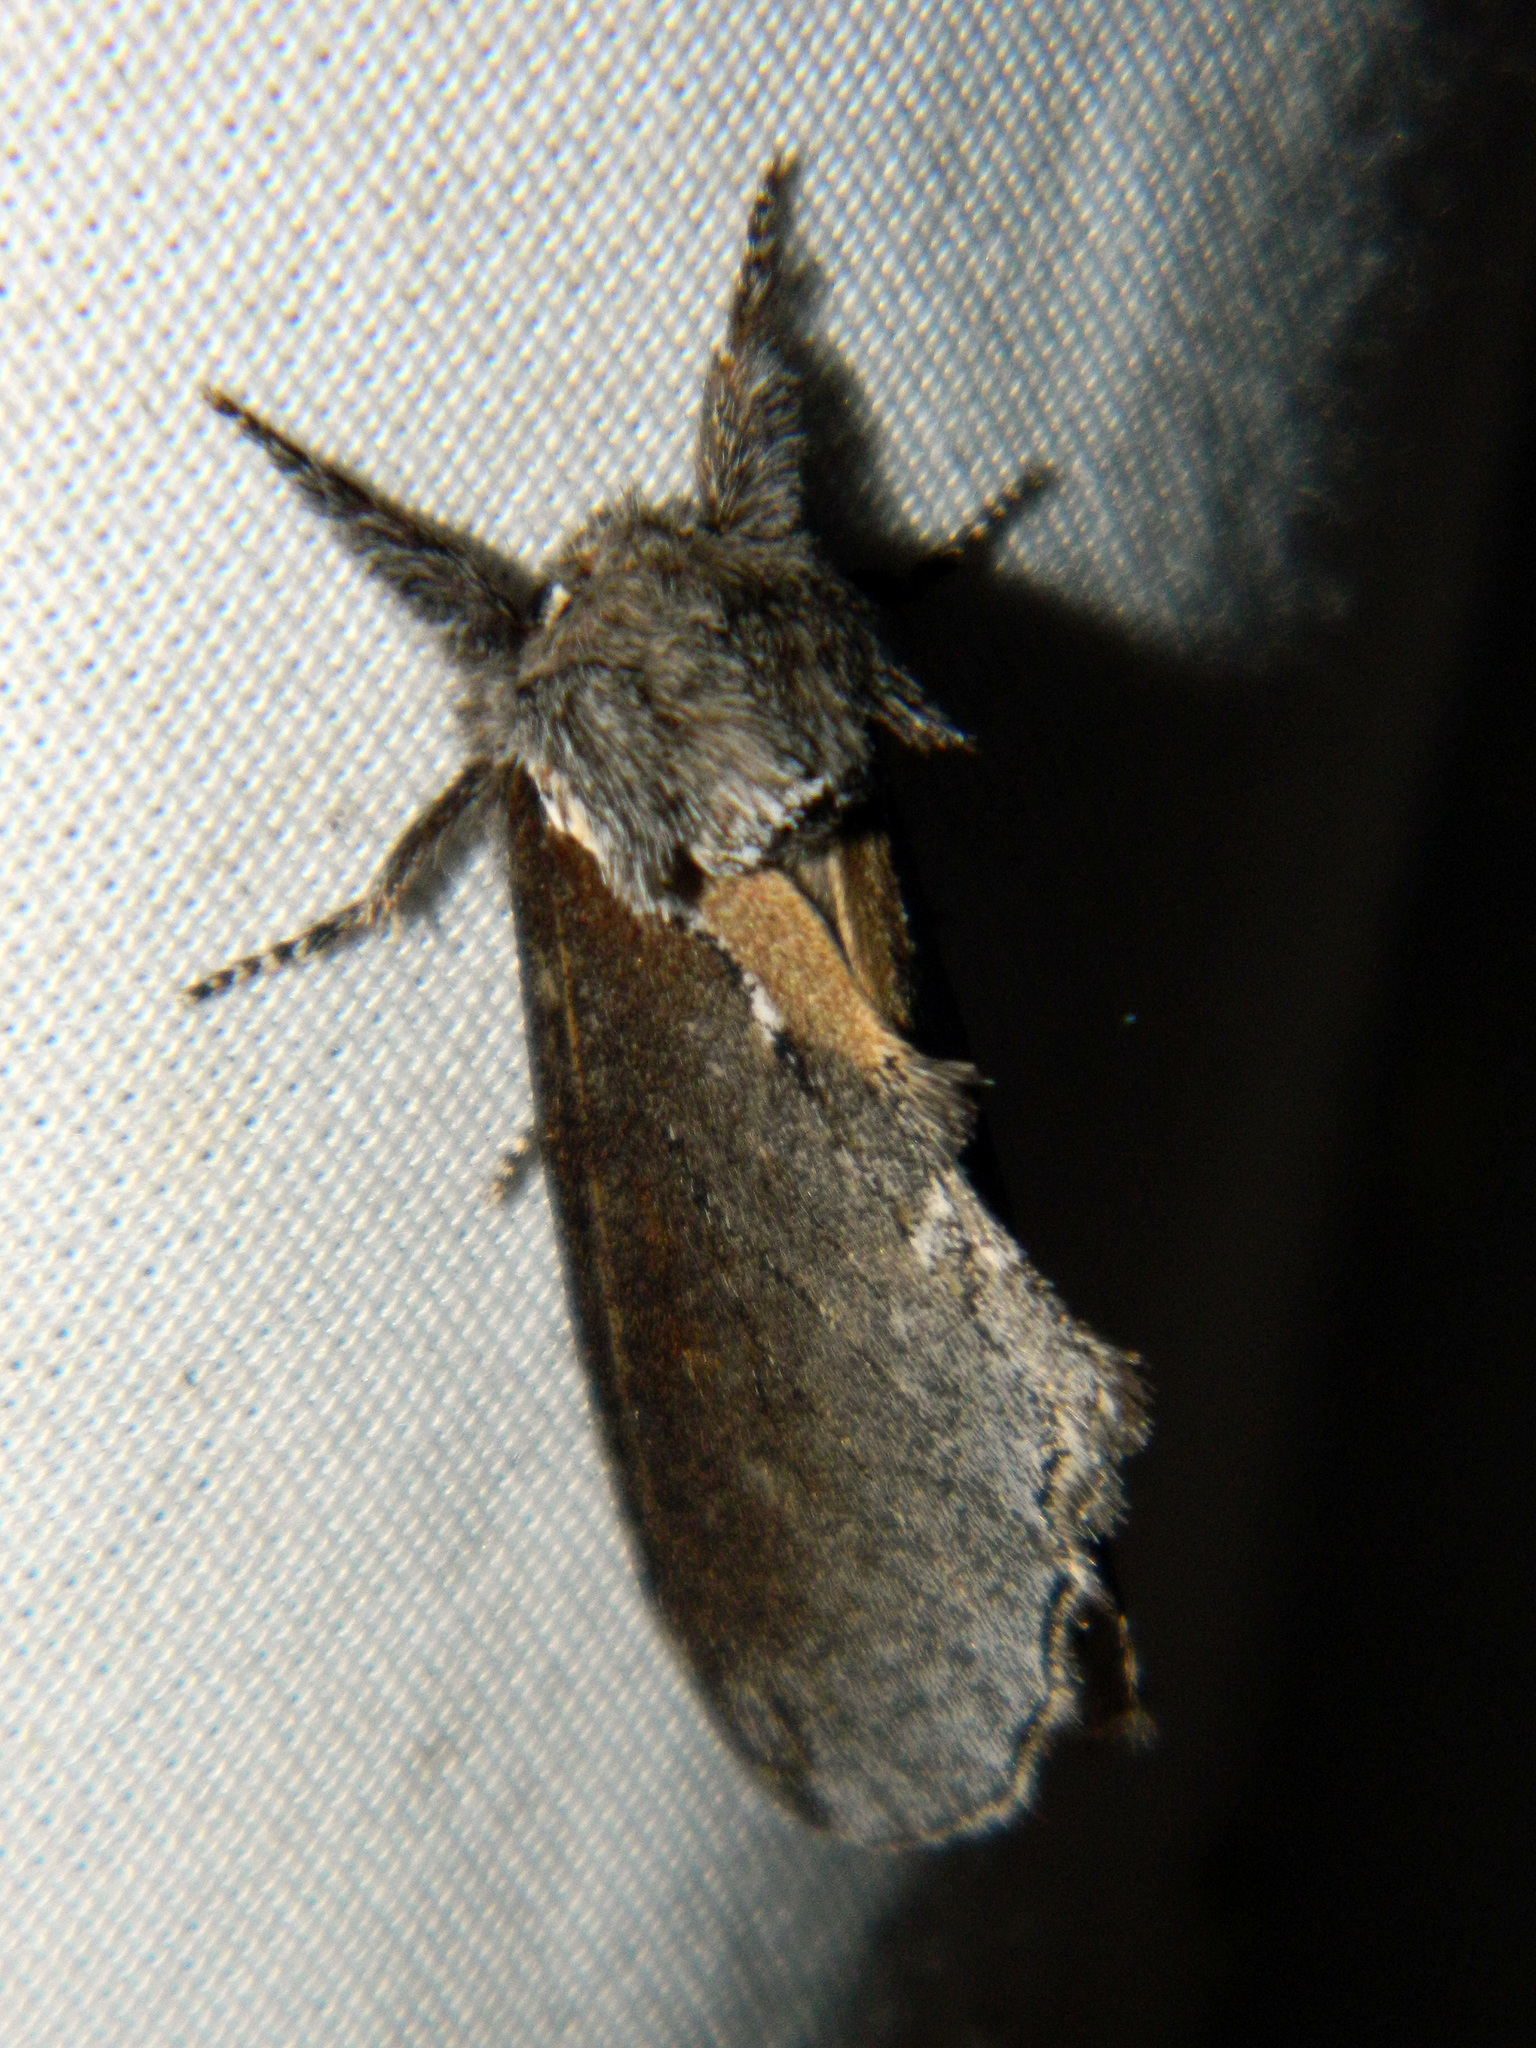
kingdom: Animalia
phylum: Arthropoda
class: Insecta
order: Lepidoptera
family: Notodontidae
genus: Pheosidea
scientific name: Pheosidea elegans
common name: Elegant prominent
